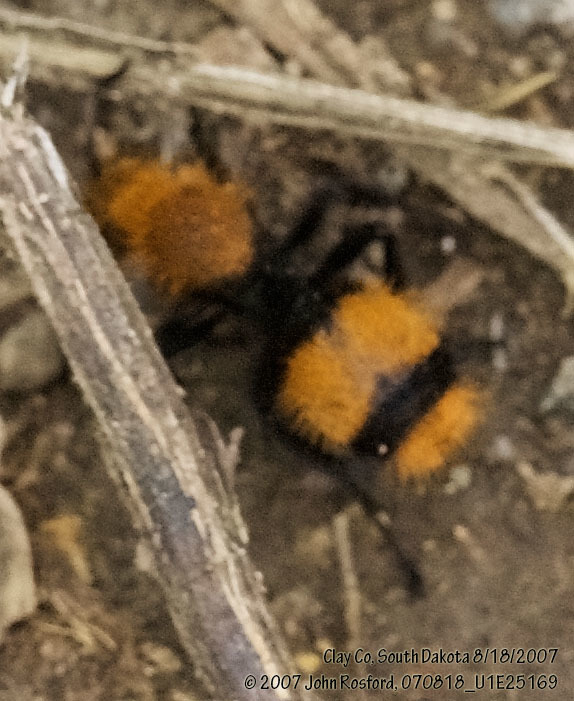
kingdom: Animalia
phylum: Arthropoda
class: Insecta
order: Hymenoptera
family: Mutillidae
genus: Dasymutilla
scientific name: Dasymutilla occidentalis
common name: Common eastern velvet ant
